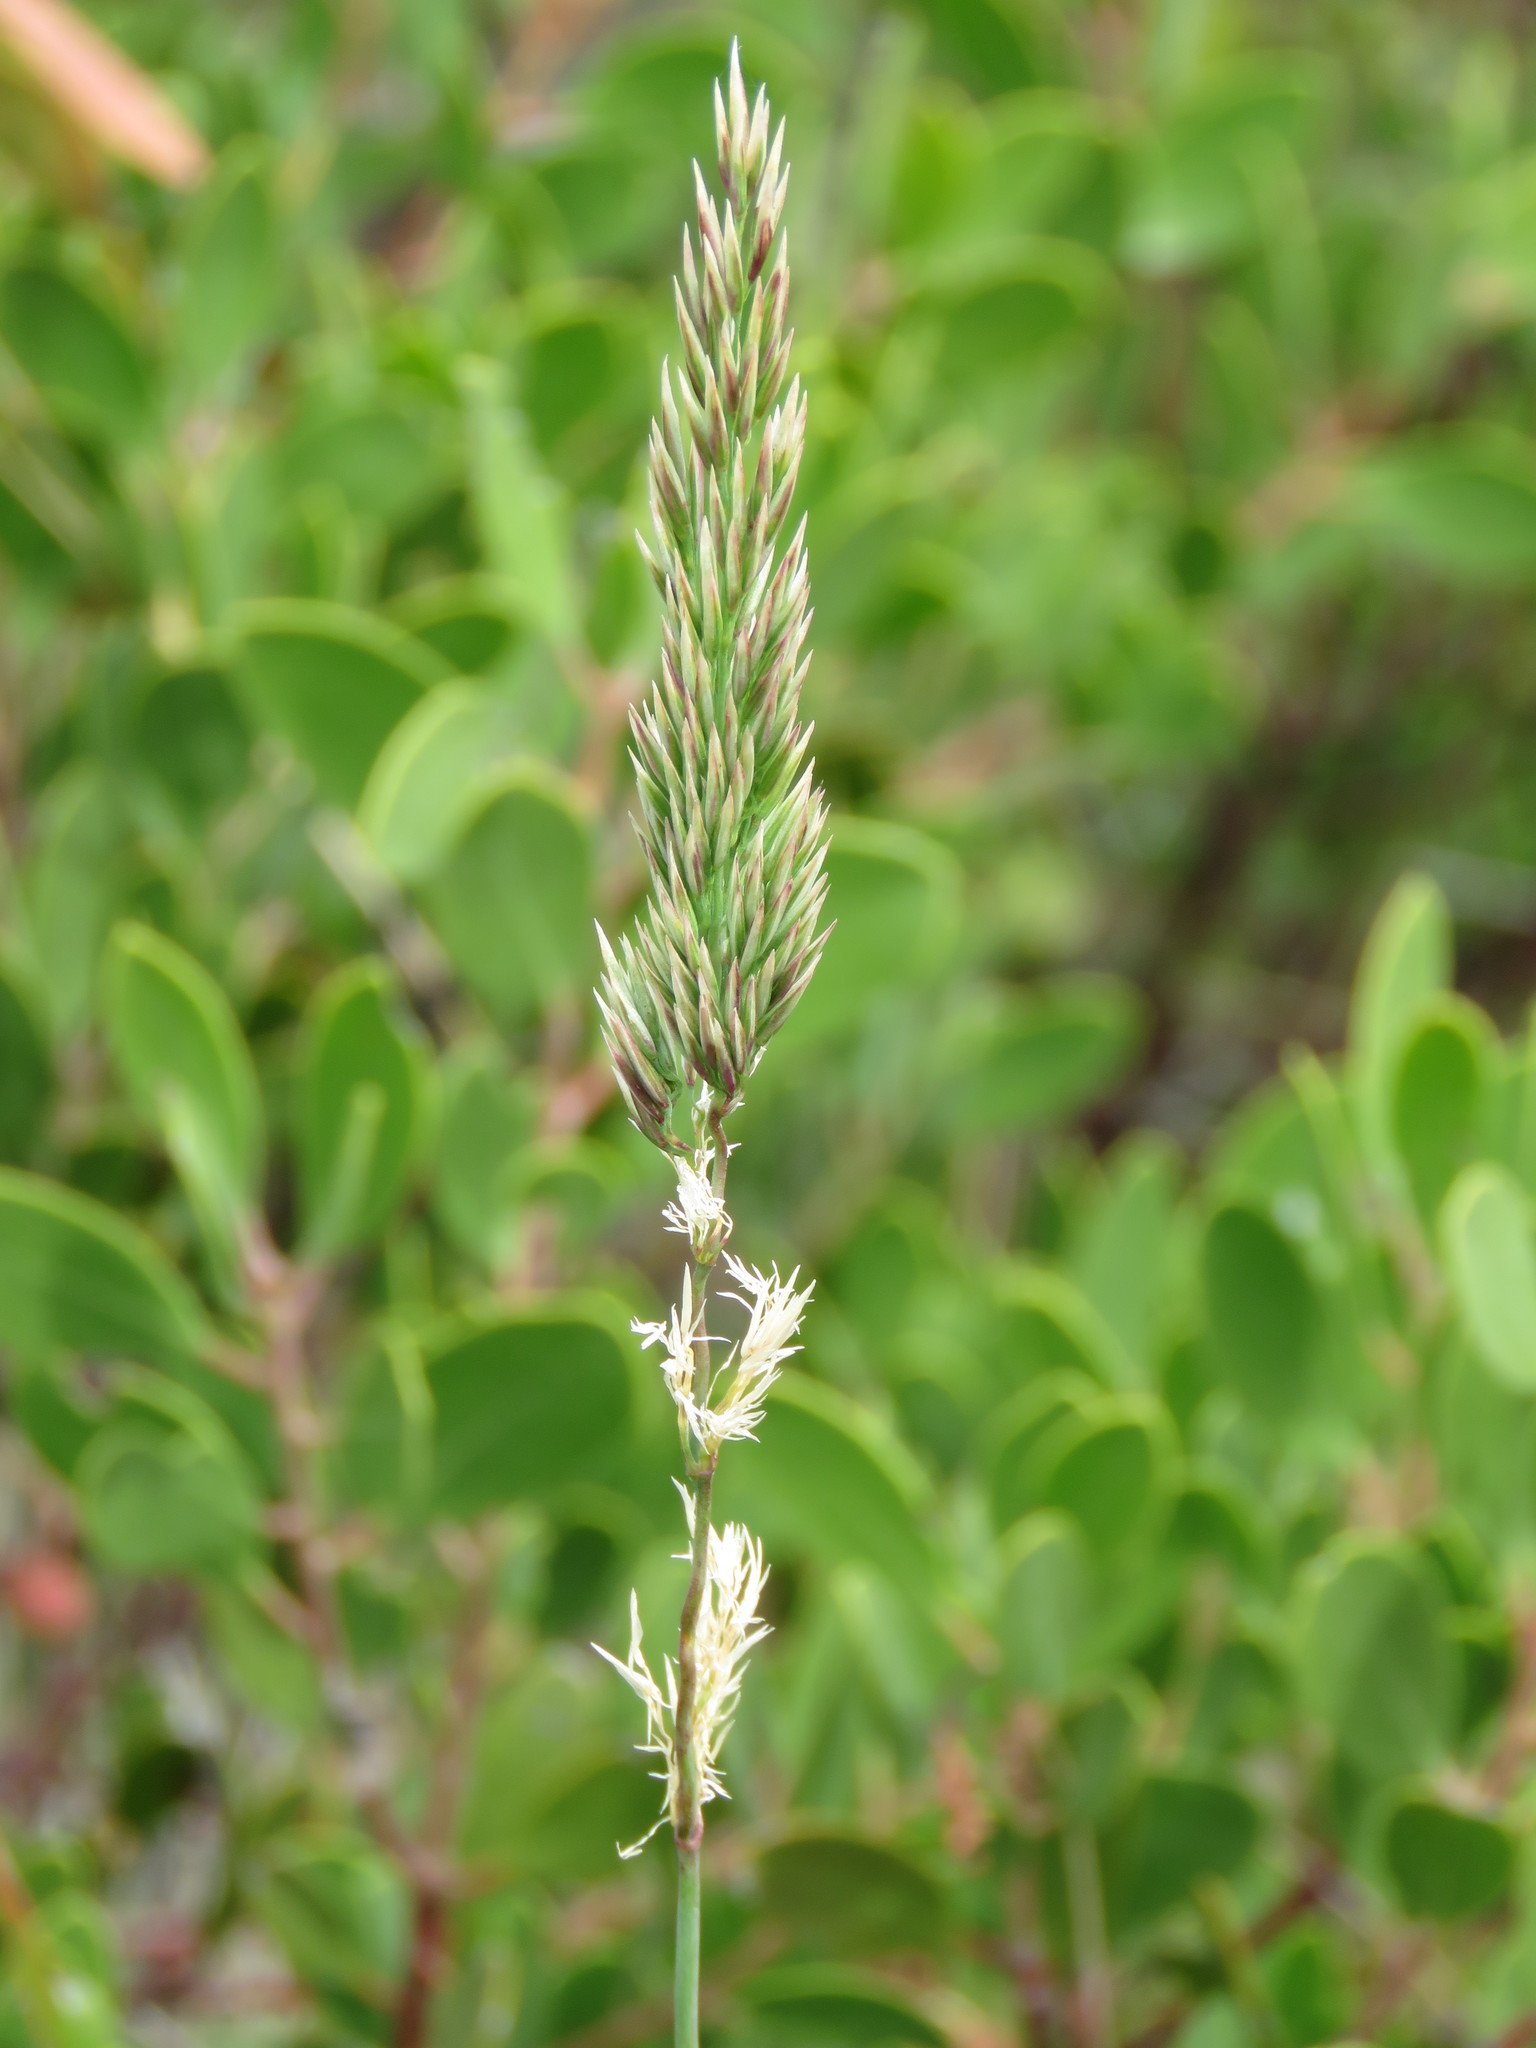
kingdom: Plantae
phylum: Tracheophyta
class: Liliopsida
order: Poales
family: Poaceae
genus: Calamagrostis
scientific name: Calamagrostis ophitidis
